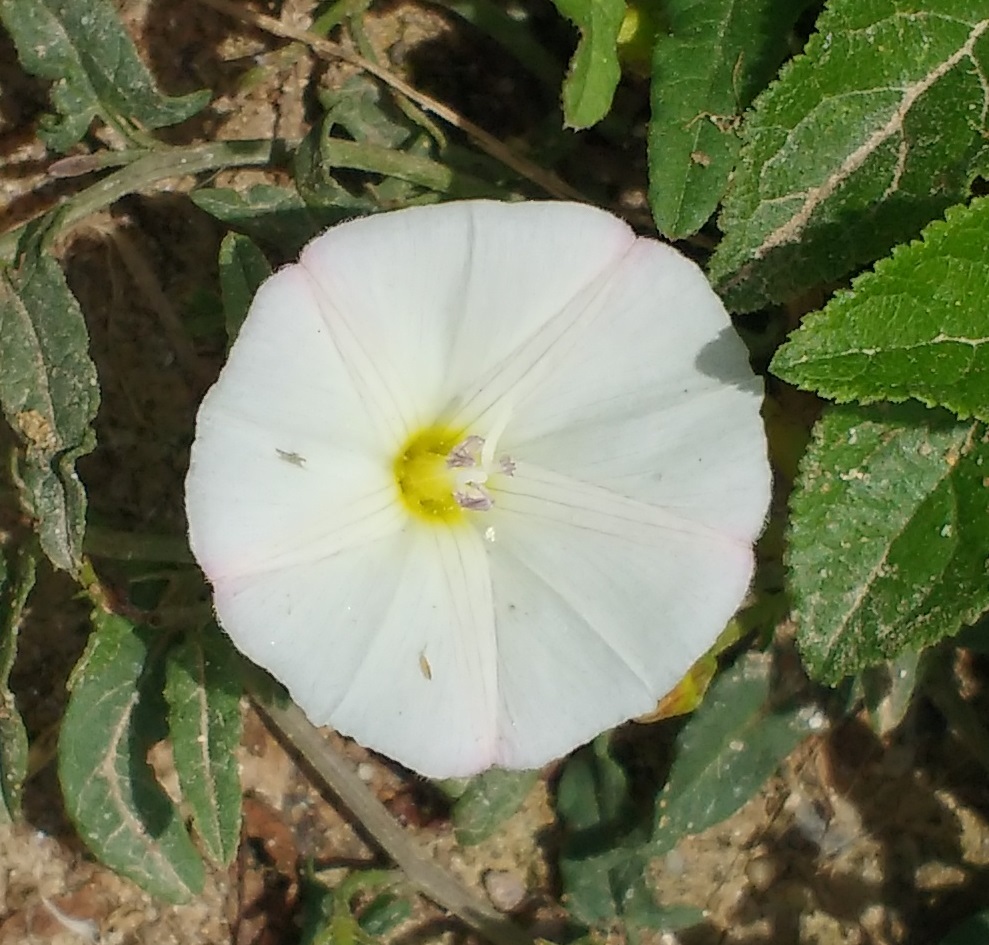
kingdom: Plantae
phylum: Tracheophyta
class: Magnoliopsida
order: Solanales
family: Convolvulaceae
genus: Convolvulus
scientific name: Convolvulus arvensis
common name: Field bindweed
